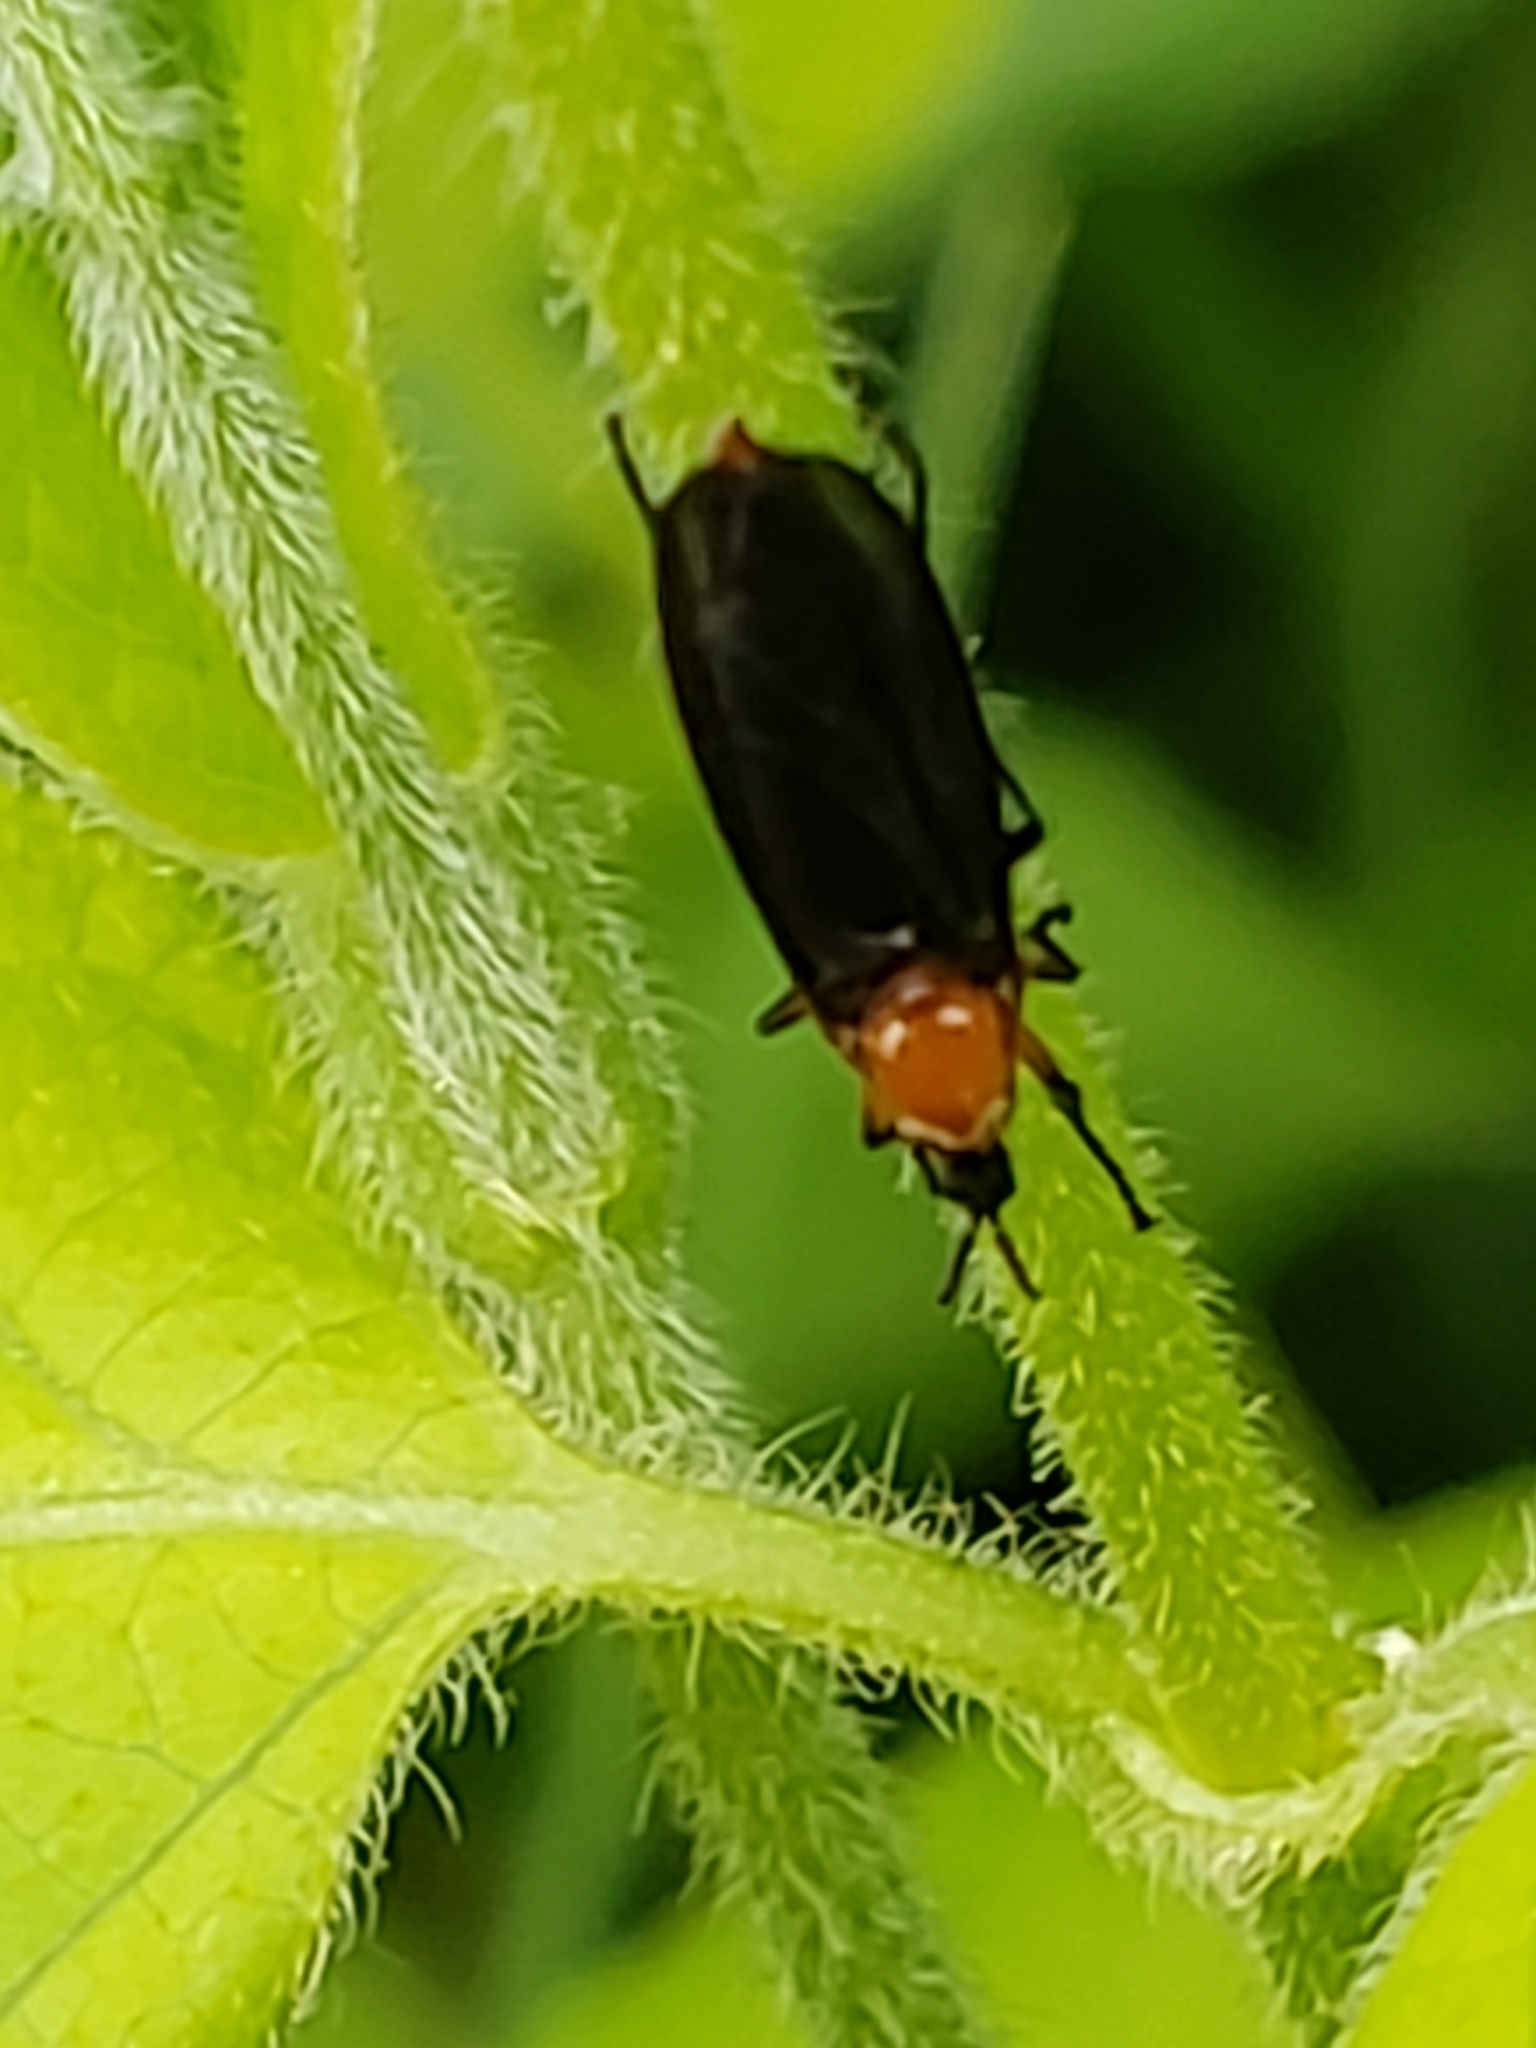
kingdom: Animalia
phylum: Arthropoda
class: Insecta
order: Diptera
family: Bibionidae
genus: Dilophus
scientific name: Dilophus spinipes
